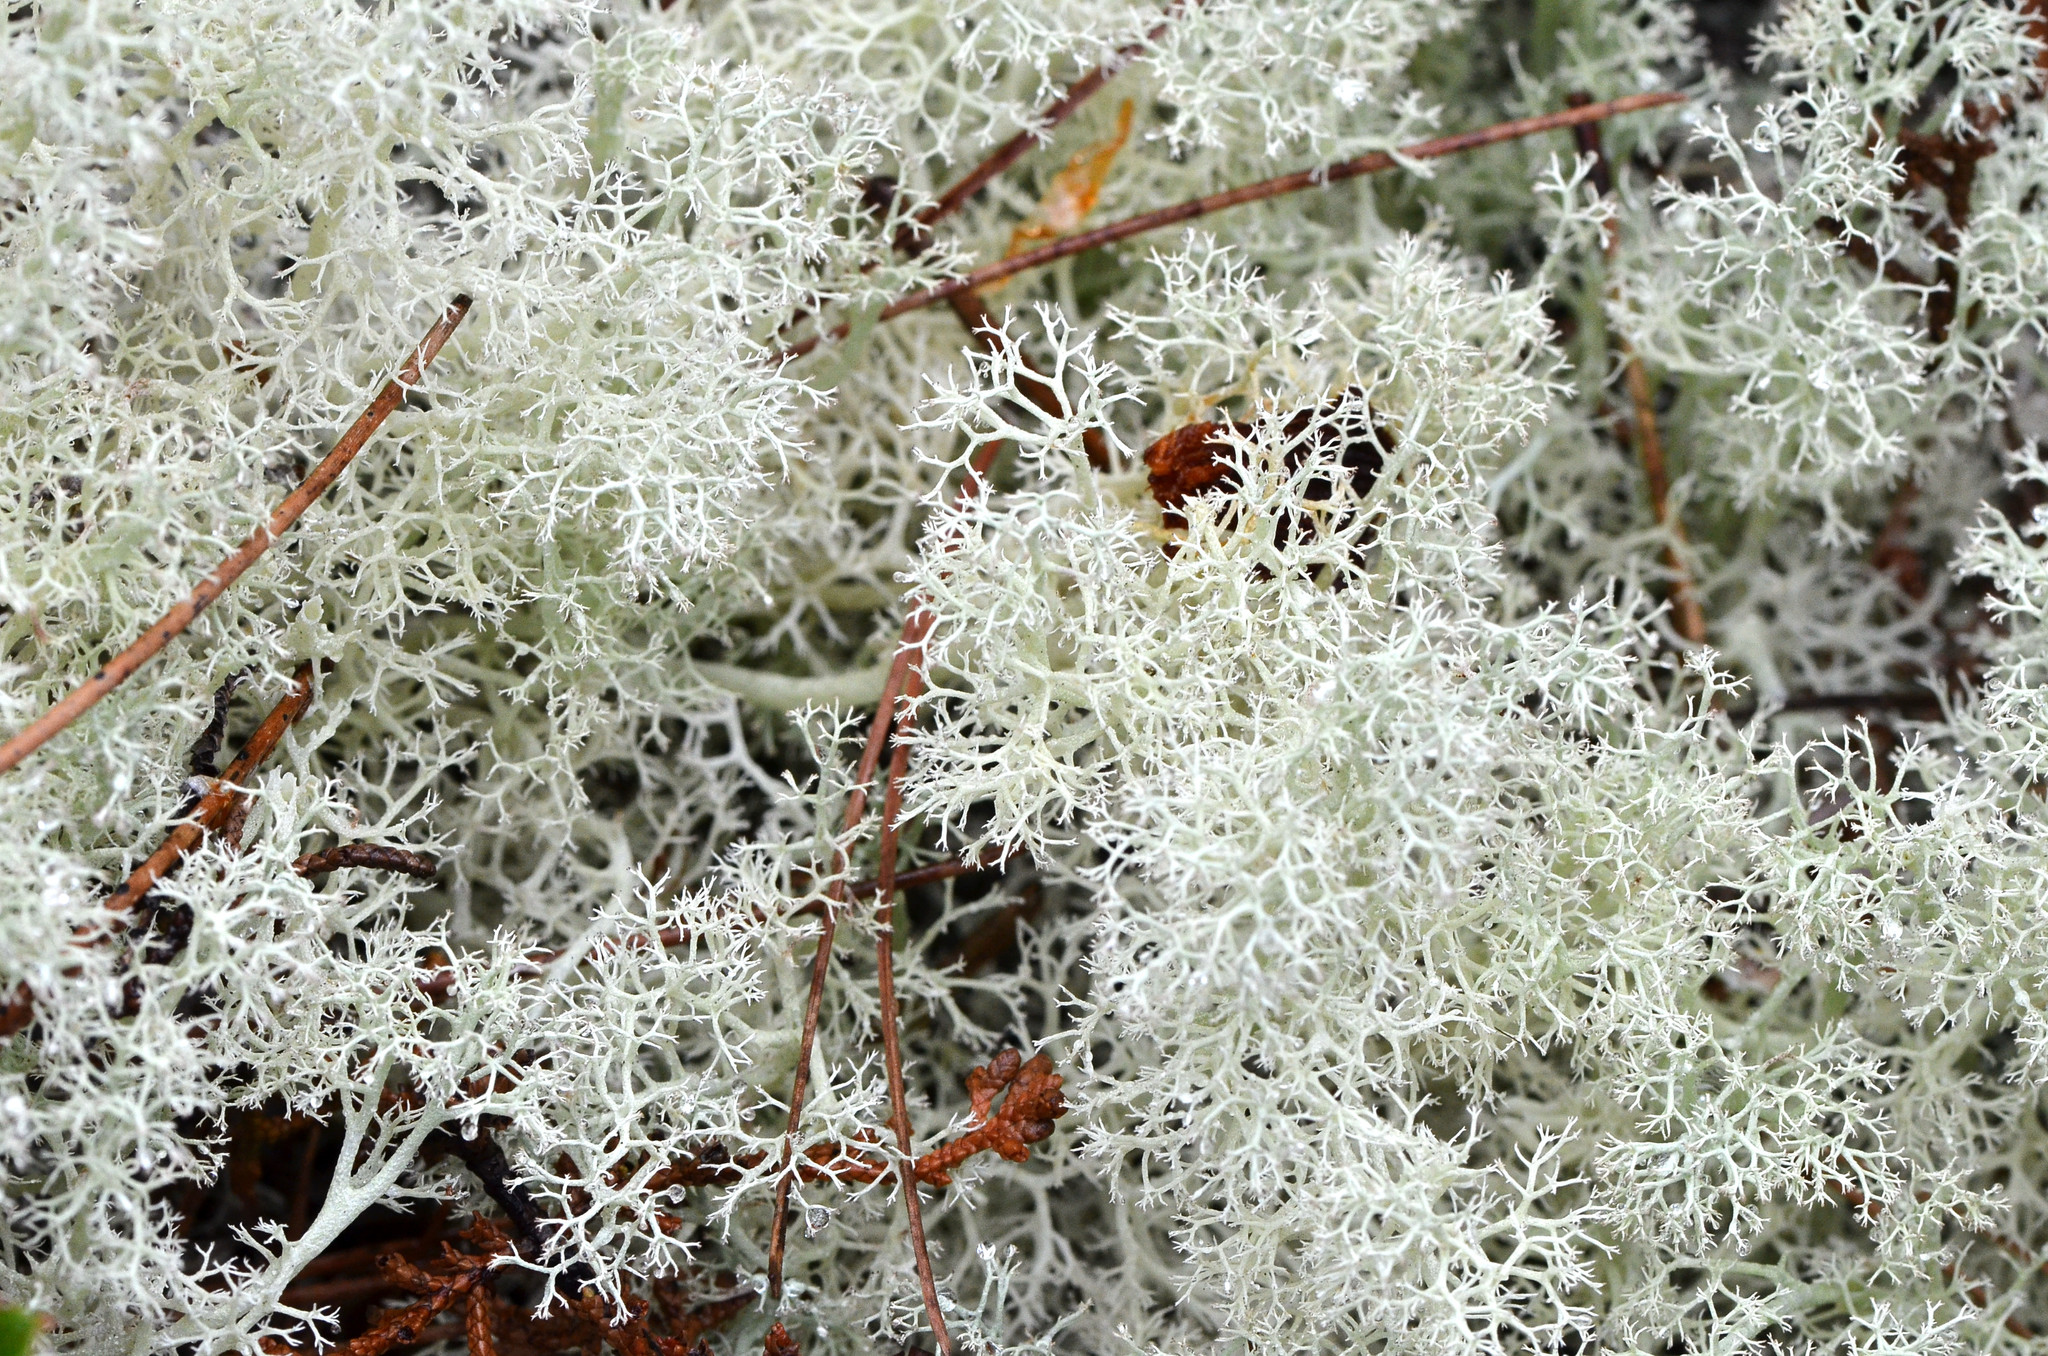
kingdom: Fungi
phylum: Ascomycota
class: Lecanoromycetes
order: Lecanorales
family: Cladoniaceae
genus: Cladonia
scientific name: Cladonia portentosa
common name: Reindeer lichen
